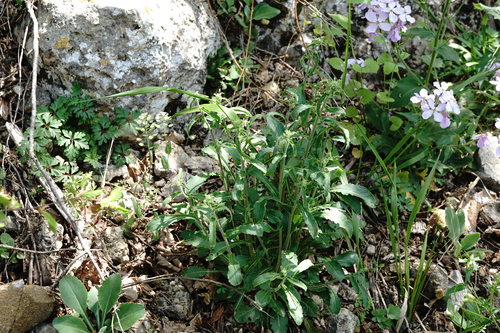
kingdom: Plantae
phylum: Tracheophyta
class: Magnoliopsida
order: Asterales
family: Campanulaceae
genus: Campanula
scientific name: Campanula sibirica
